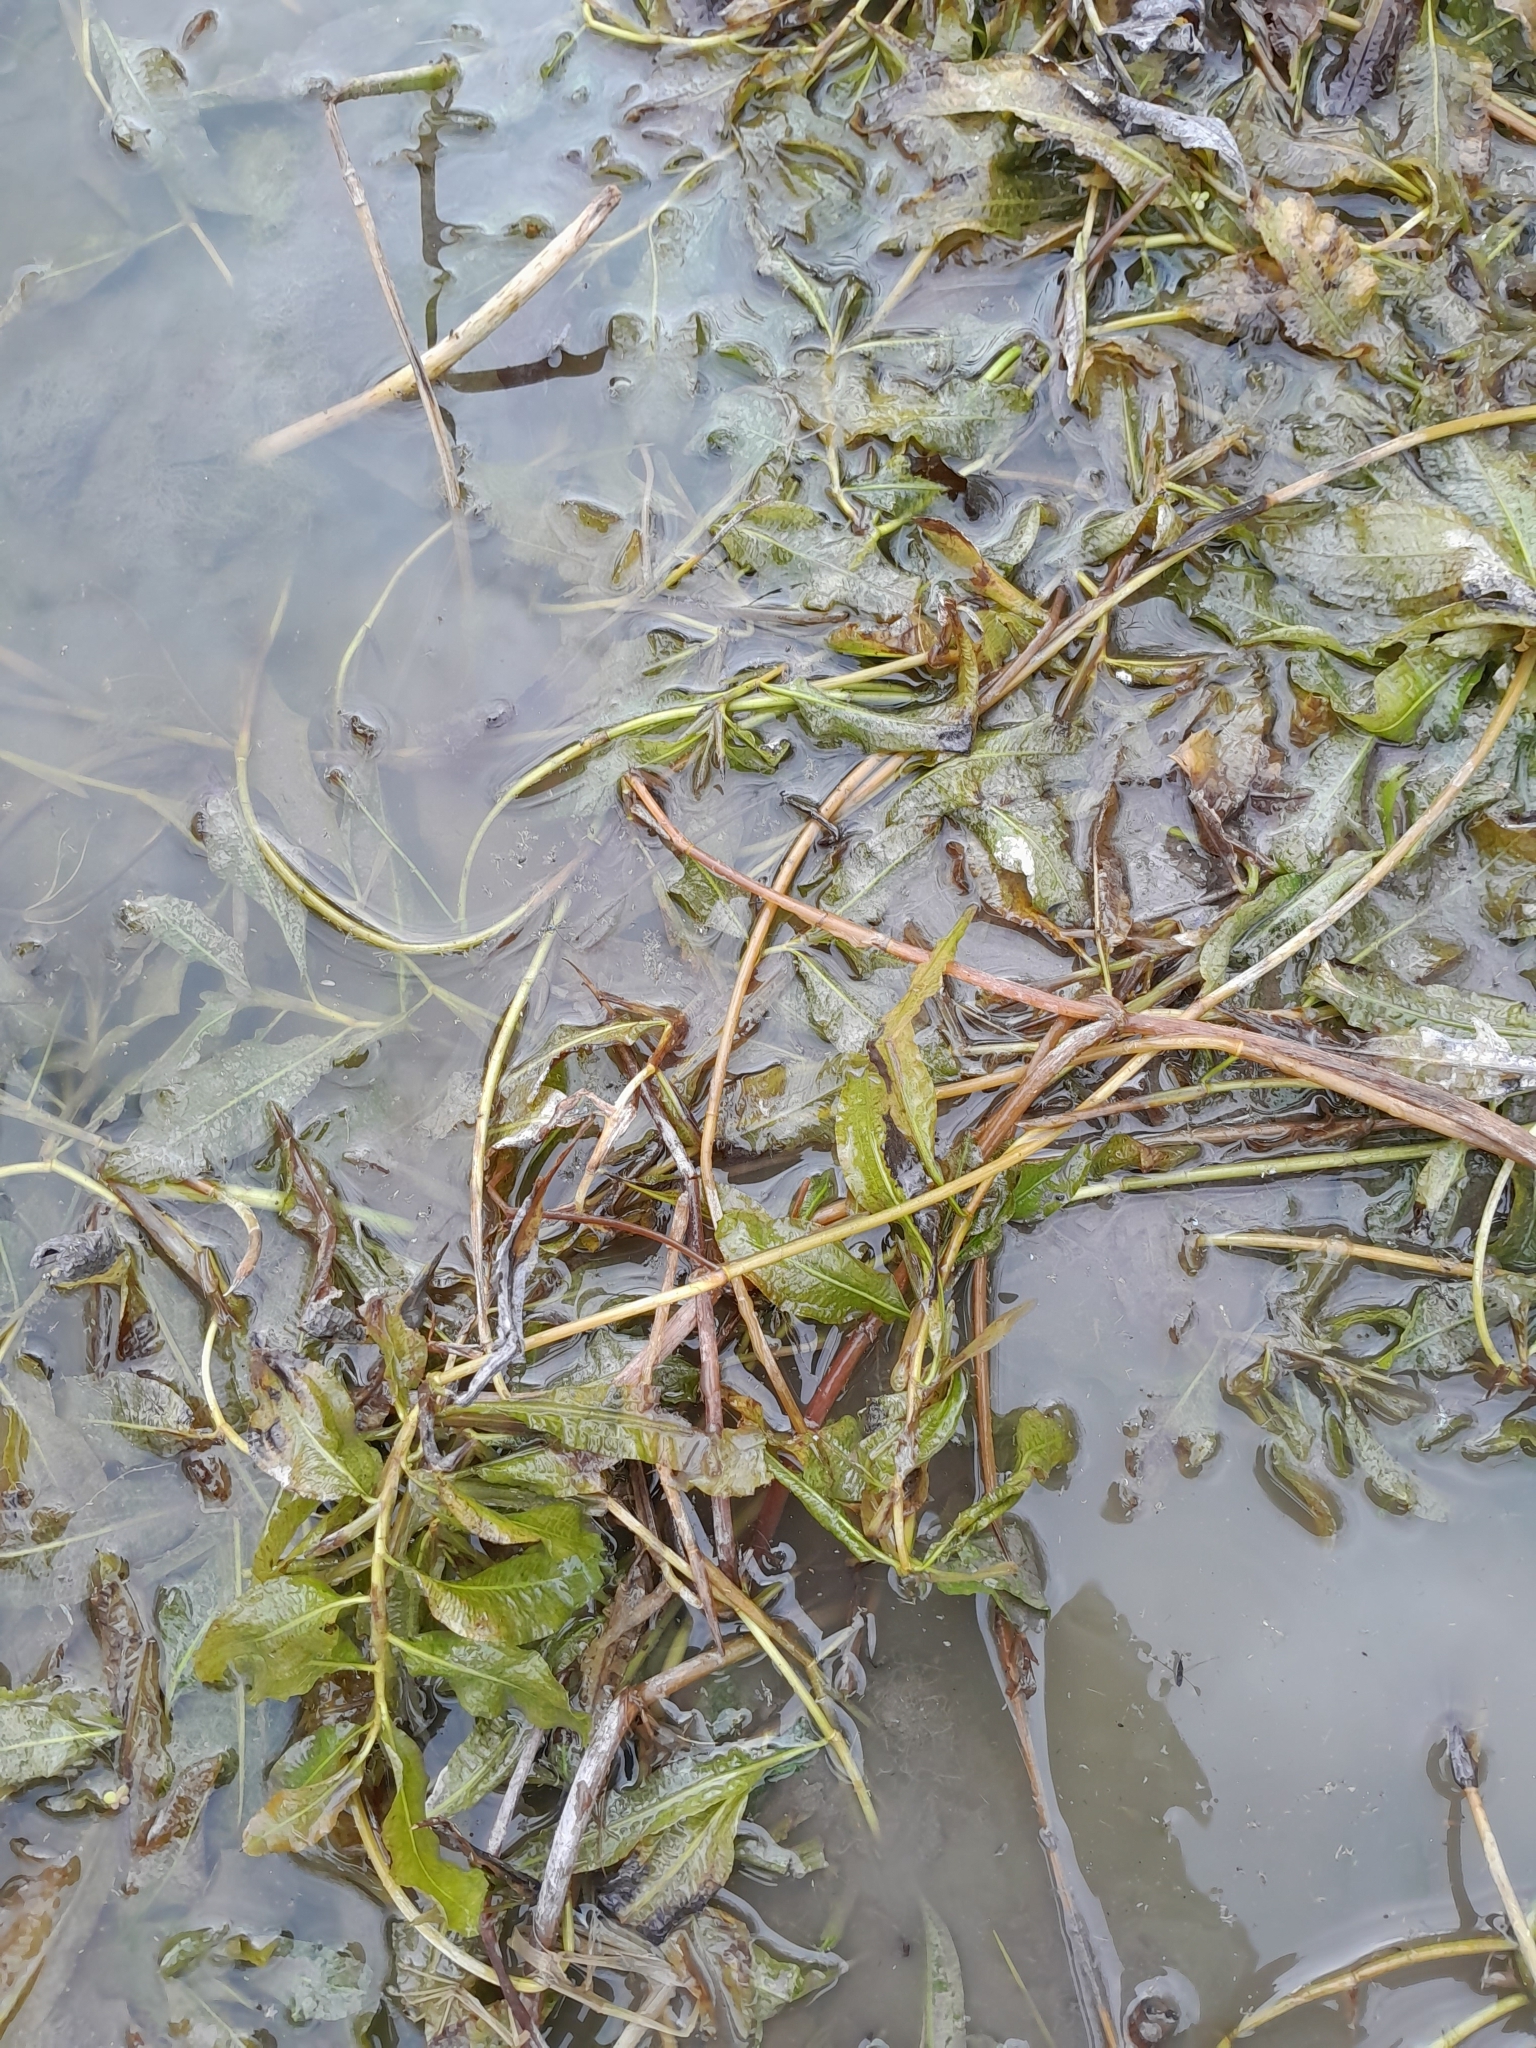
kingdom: Plantae
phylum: Tracheophyta
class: Liliopsida
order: Alismatales
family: Potamogetonaceae
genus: Potamogeton
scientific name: Potamogeton lucens
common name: Shining pondweed
